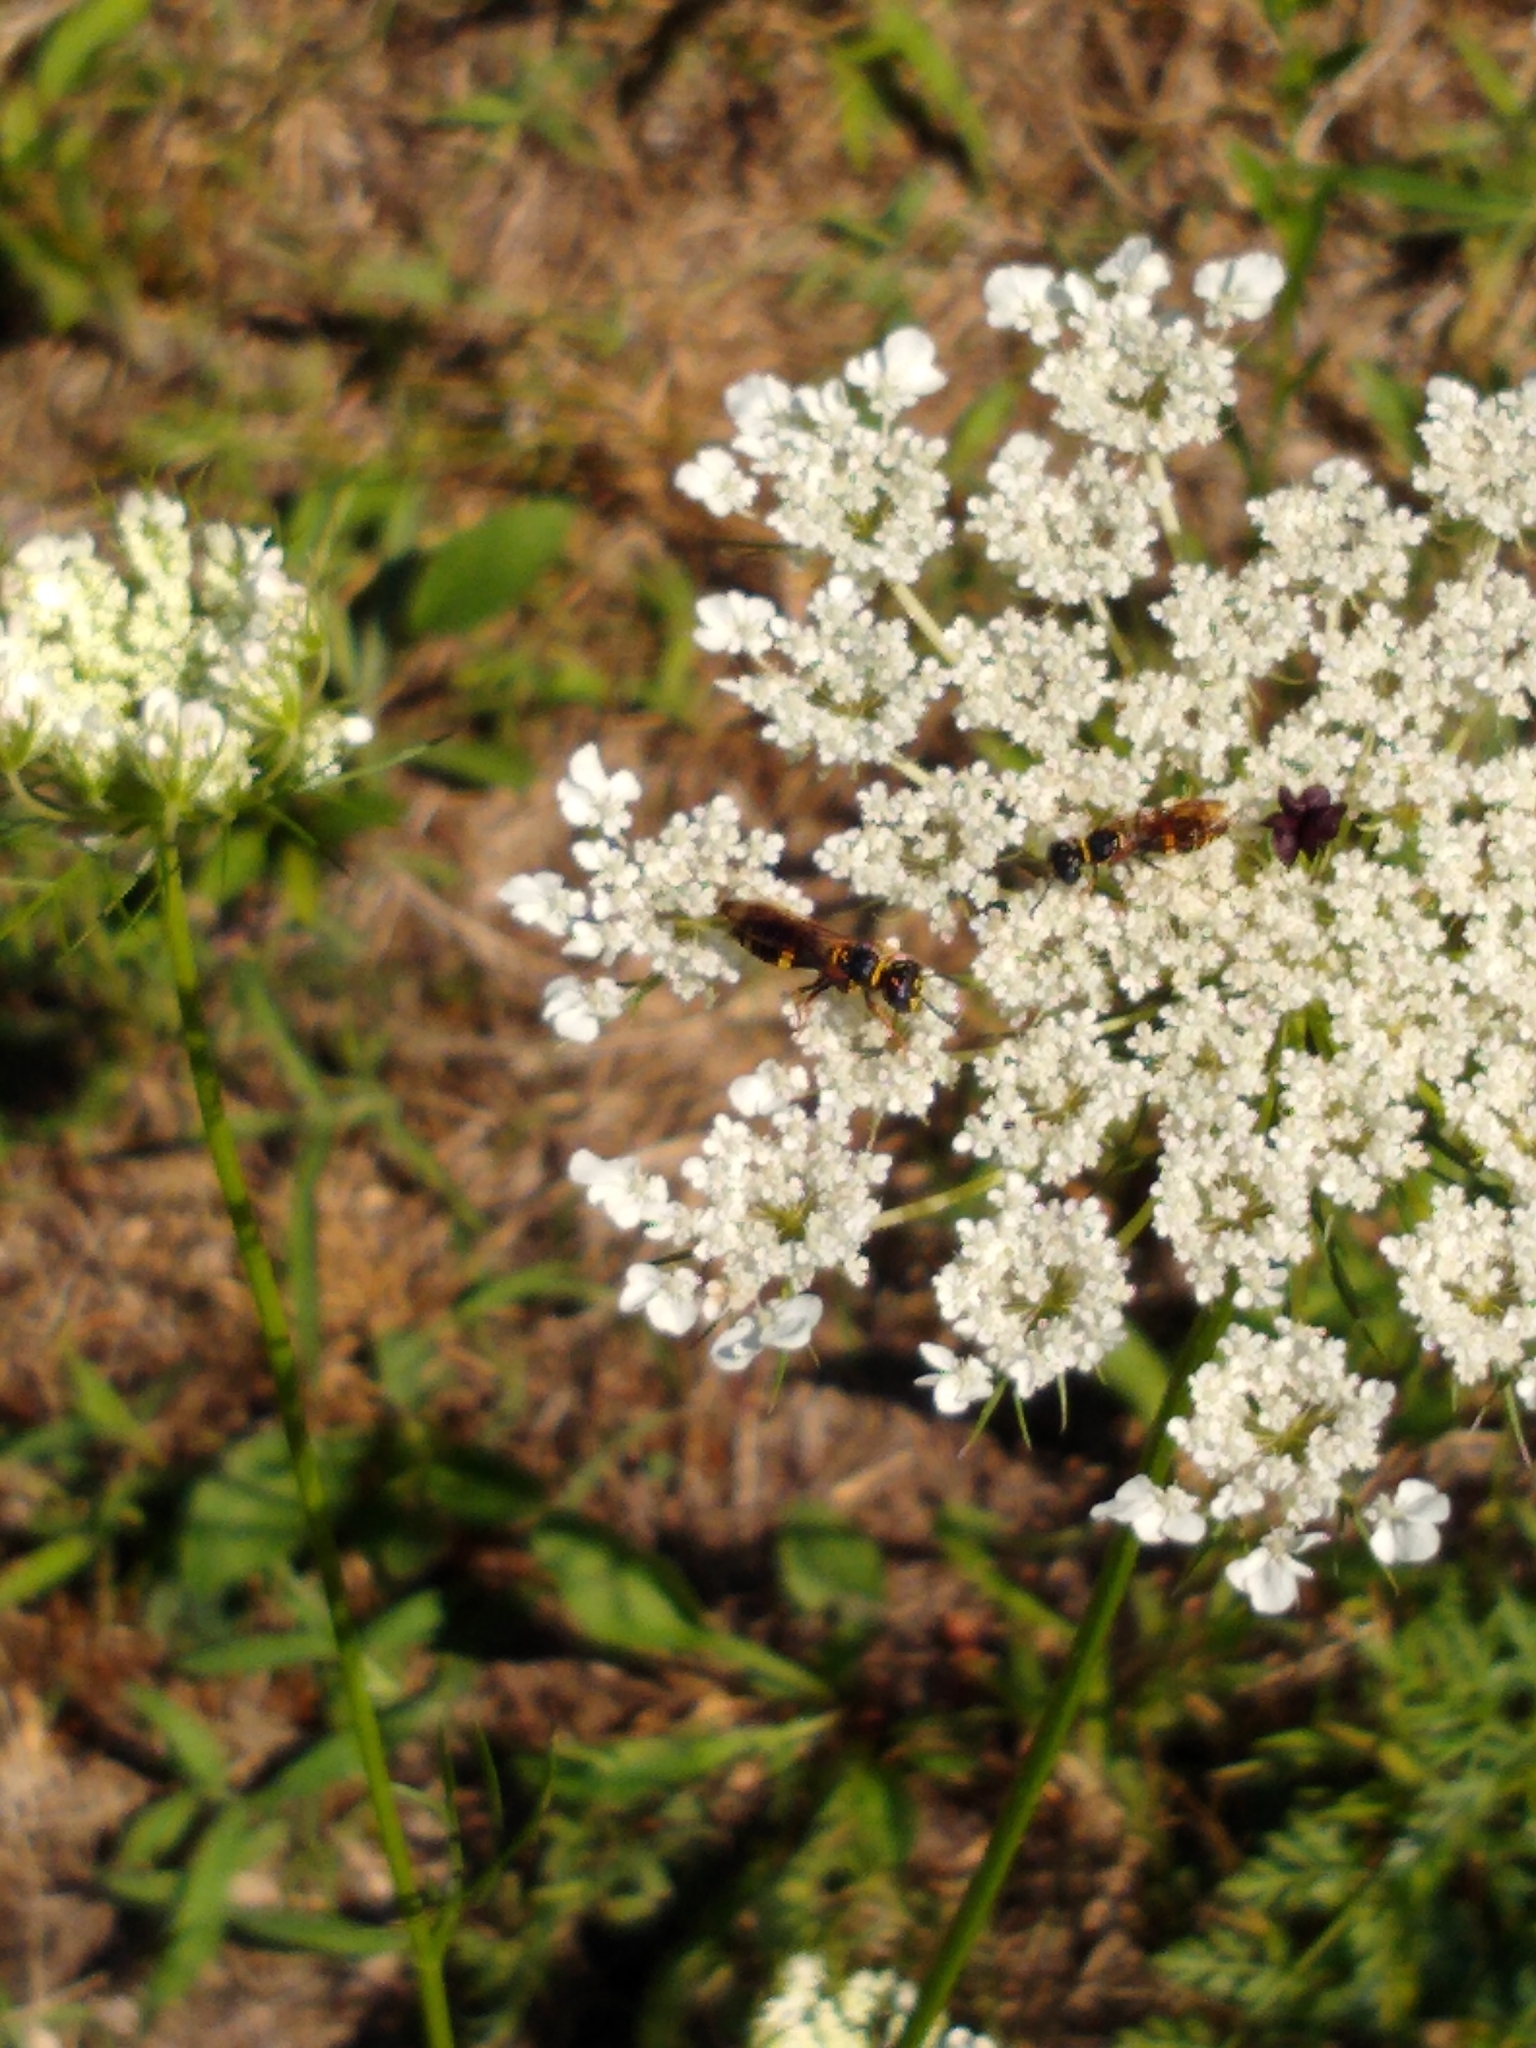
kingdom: Animalia
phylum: Arthropoda
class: Insecta
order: Hymenoptera
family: Crabronidae
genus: Philanthus
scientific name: Philanthus gibbosus
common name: Humped beewolf
